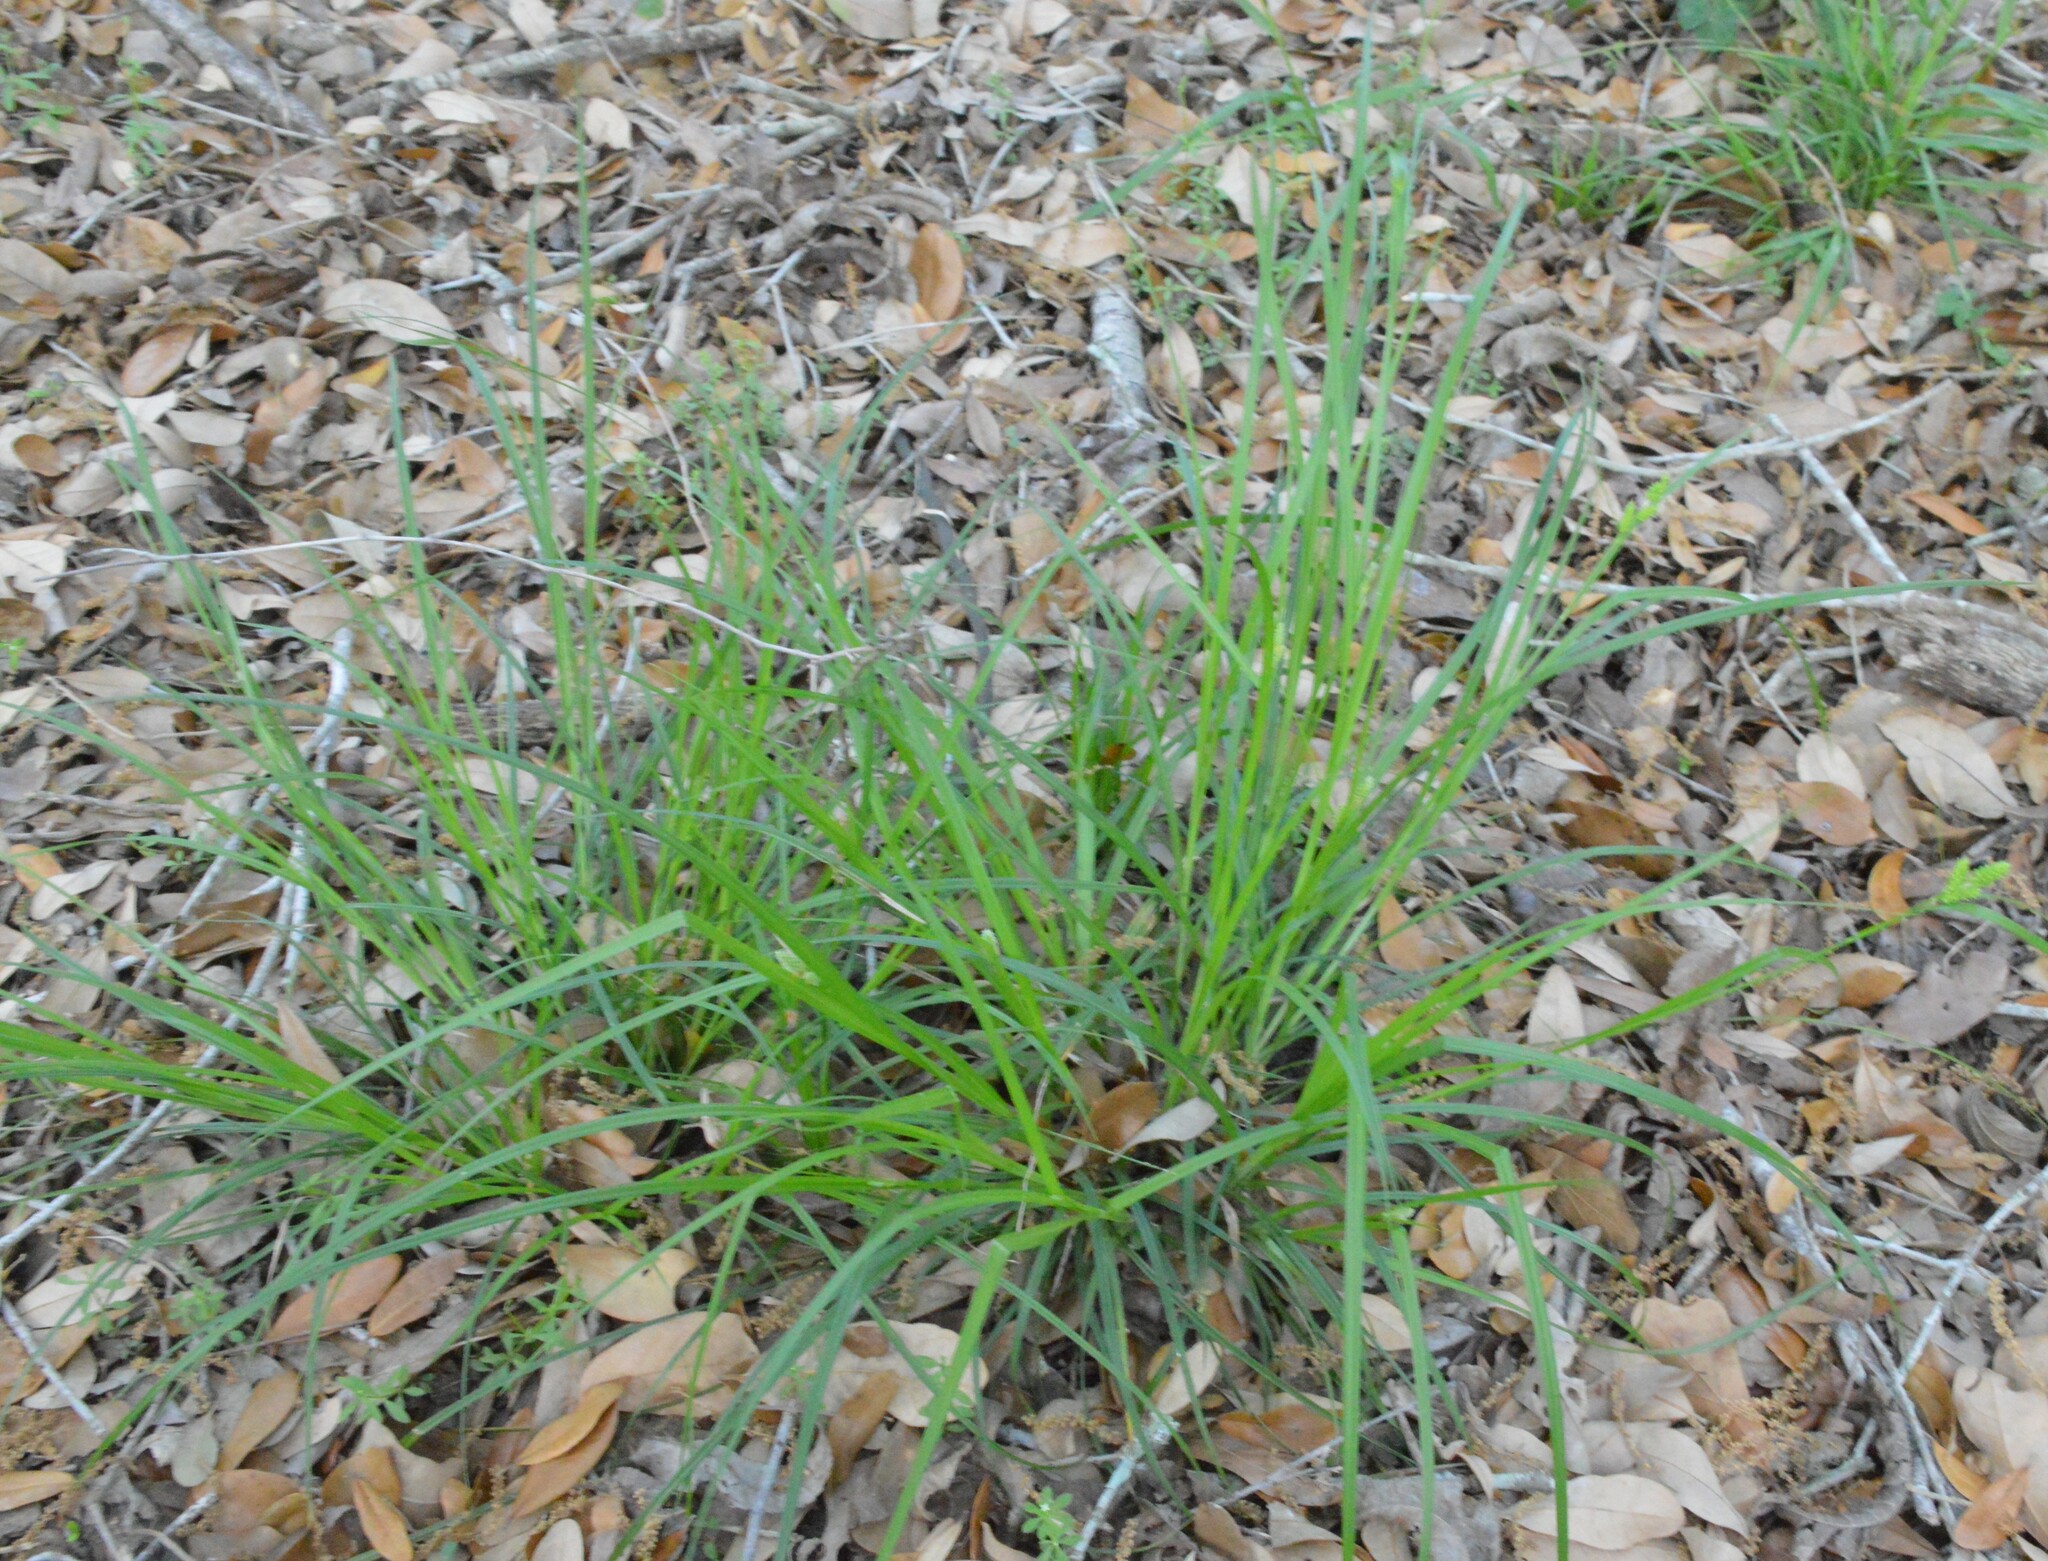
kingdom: Plantae
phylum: Tracheophyta
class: Liliopsida
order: Poales
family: Cyperaceae
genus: Carex
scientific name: Carex caroliniana
